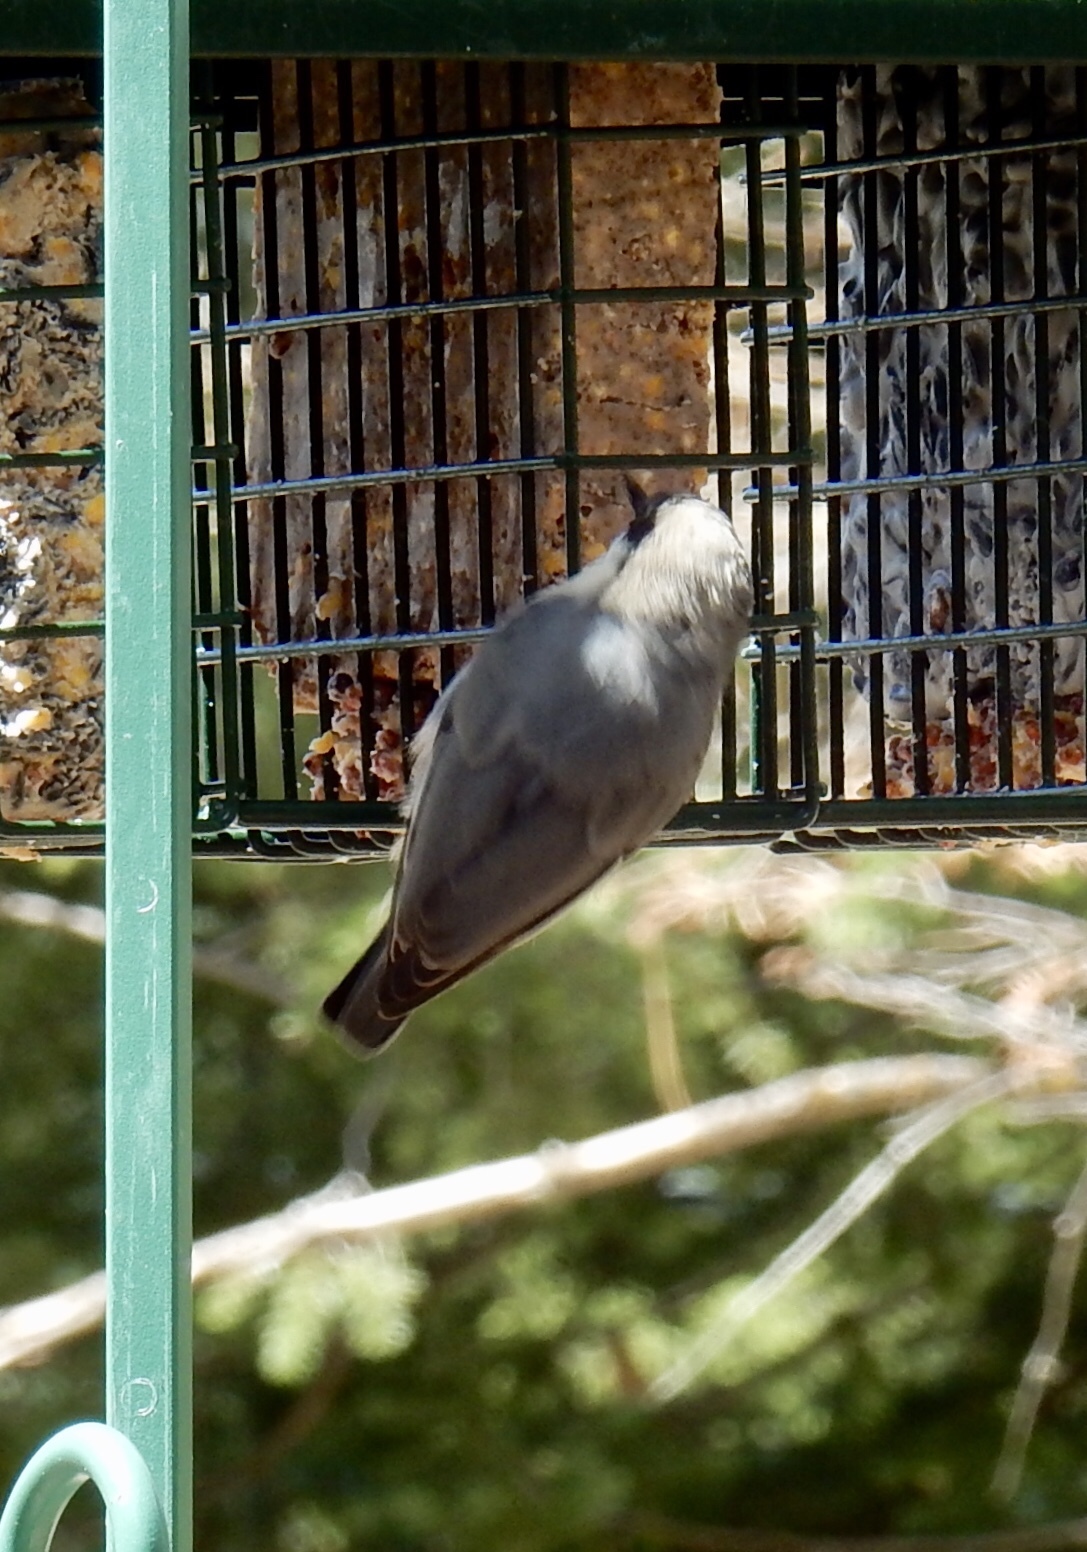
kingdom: Animalia
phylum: Chordata
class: Aves
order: Passeriformes
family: Sittidae
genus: Sitta
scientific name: Sitta pygmaea
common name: Pygmy nuthatch
